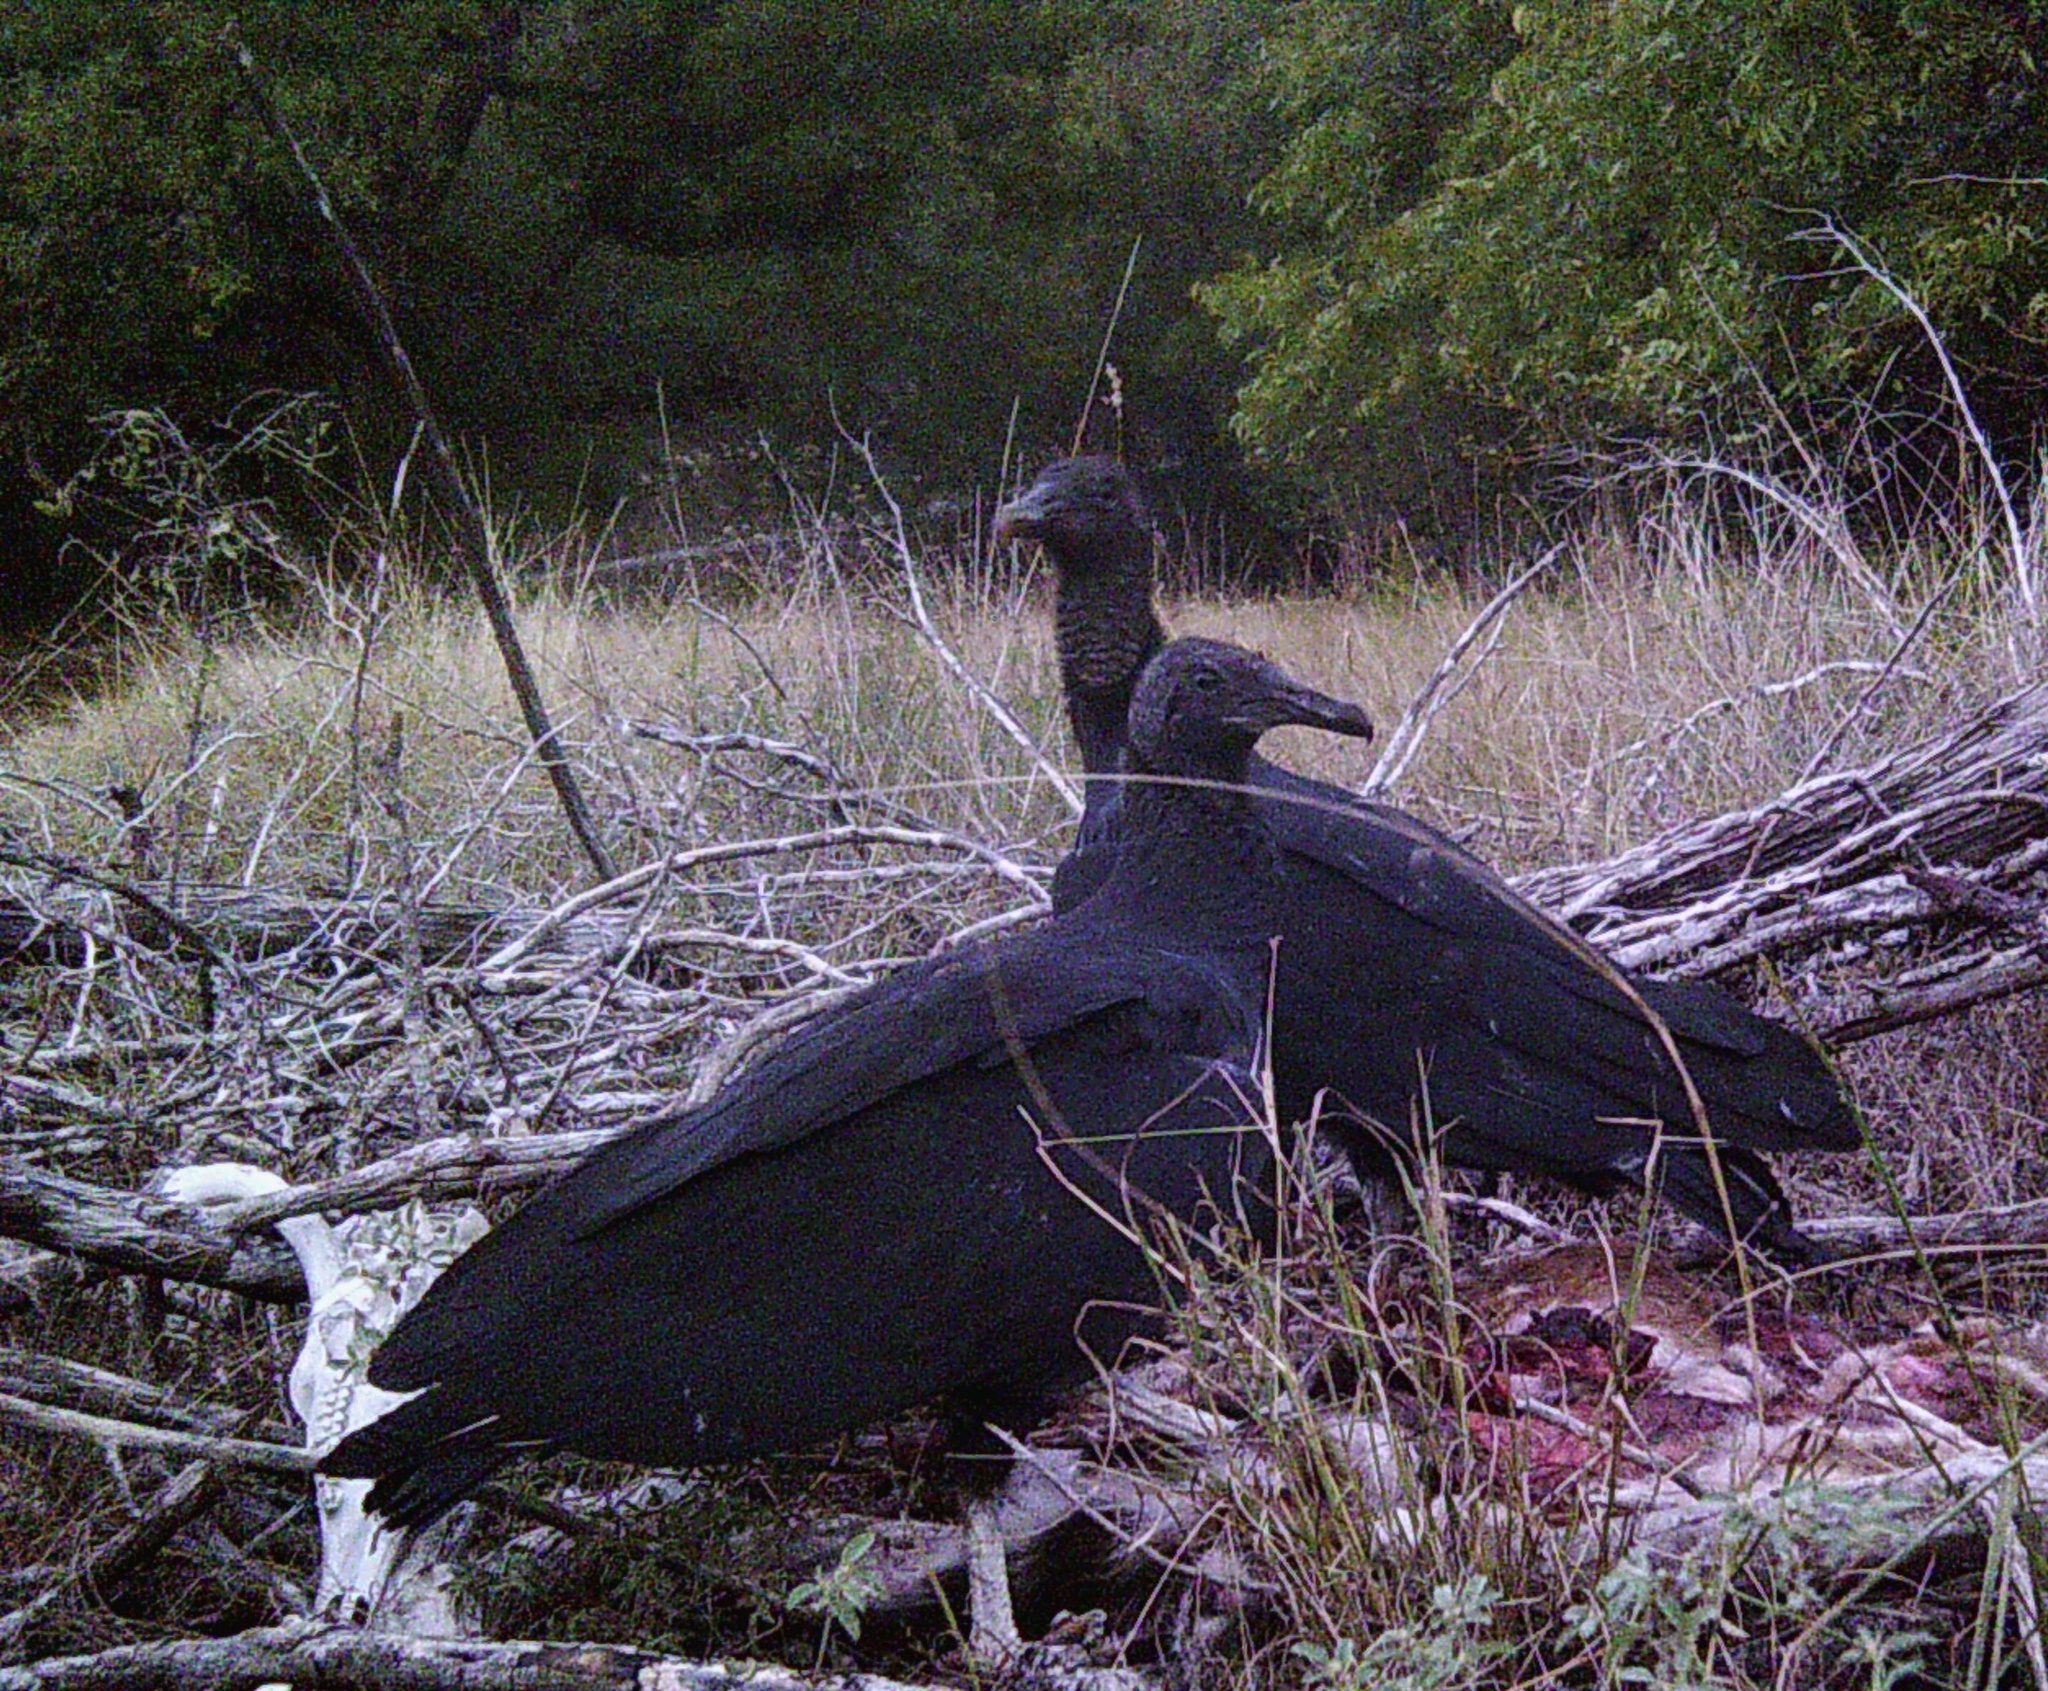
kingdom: Animalia
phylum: Chordata
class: Aves
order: Accipitriformes
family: Cathartidae
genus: Coragyps
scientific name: Coragyps atratus
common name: Black vulture
